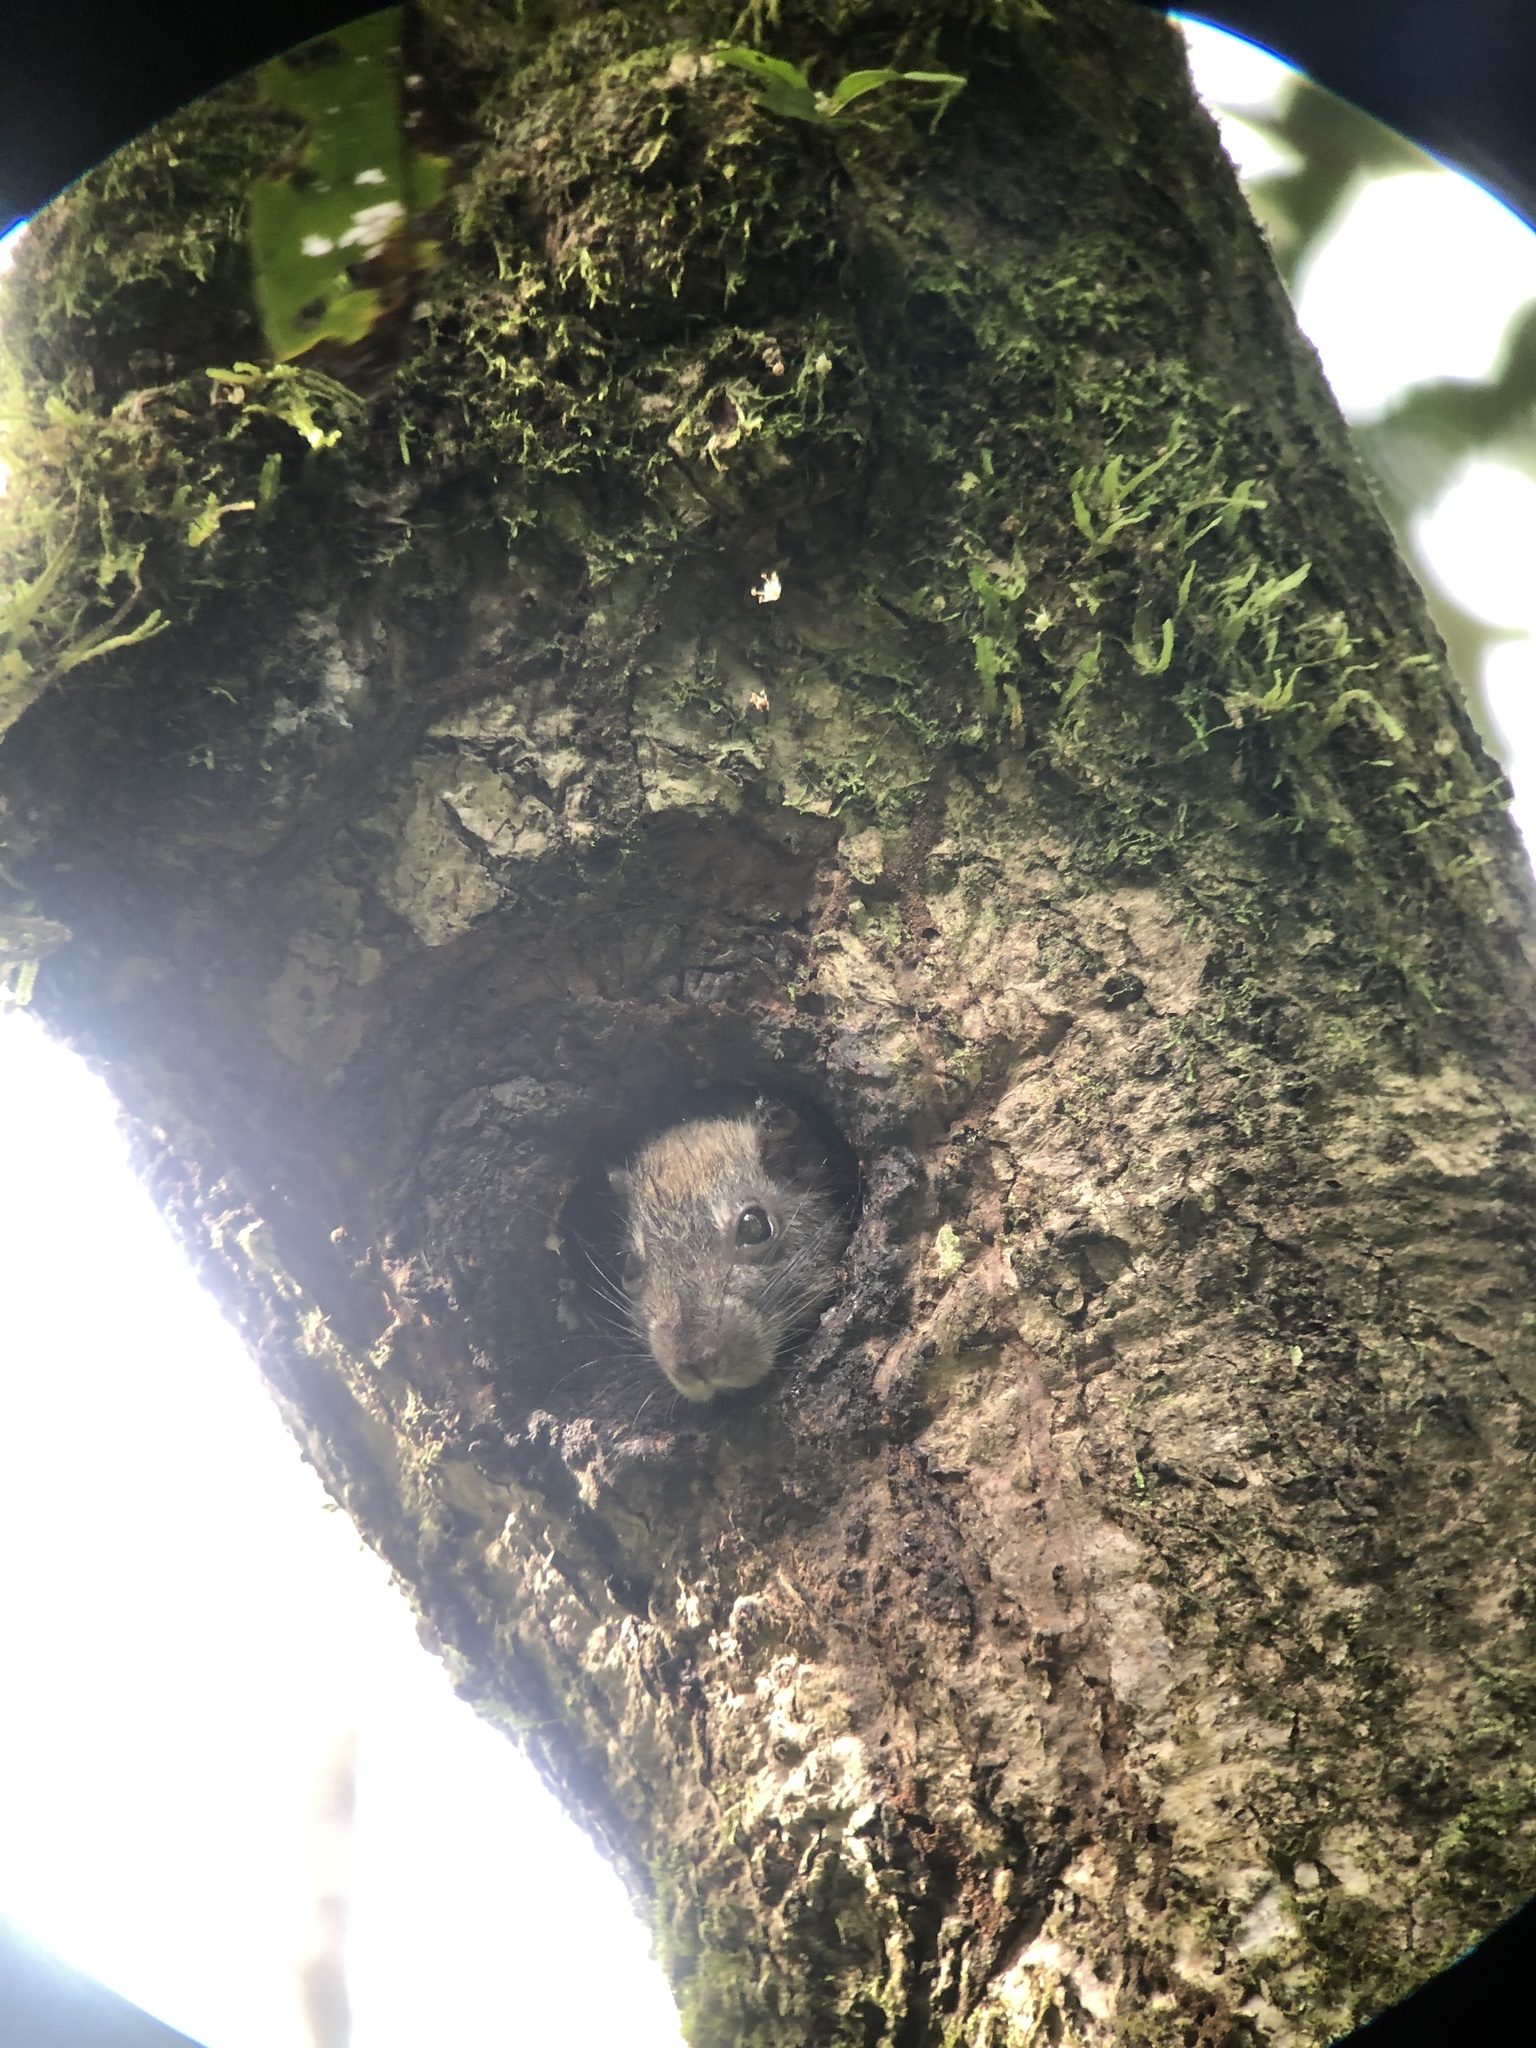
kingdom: Animalia
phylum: Chordata
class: Mammalia
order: Rodentia
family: Echimyidae
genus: Diplomys
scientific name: Diplomys labilis
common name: Rufous soft-furred spiny-rat
